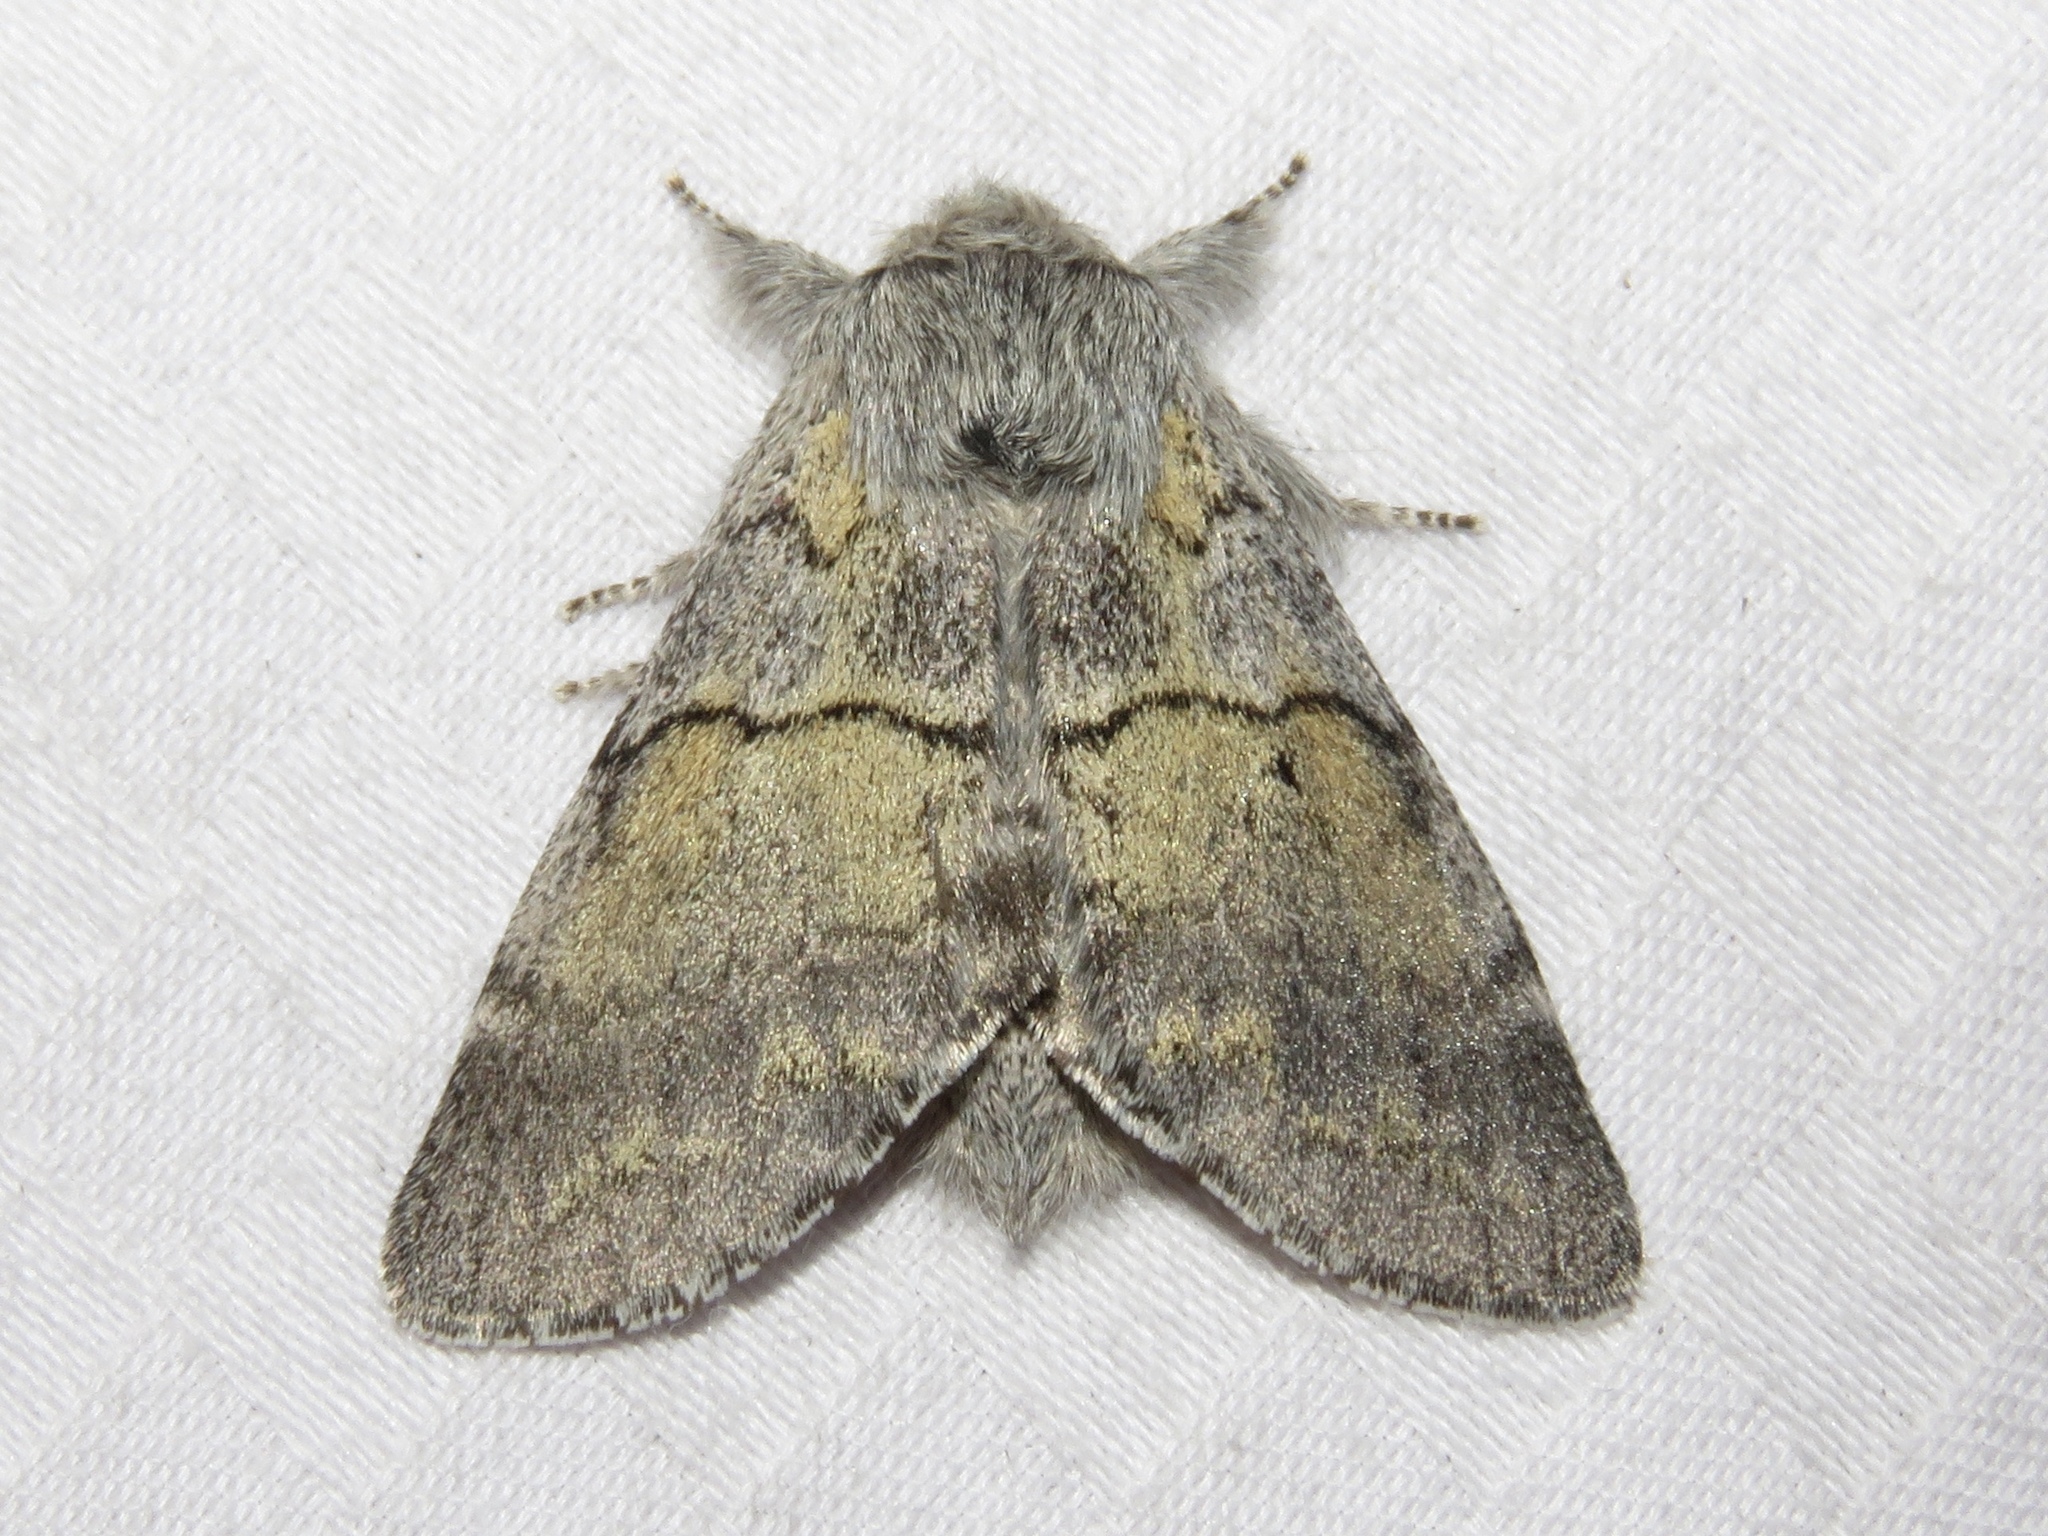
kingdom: Animalia
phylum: Arthropoda
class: Insecta
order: Lepidoptera
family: Notodontidae
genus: Gluphisia
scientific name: Gluphisia lintneri
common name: Lintner's gluphisia moth
